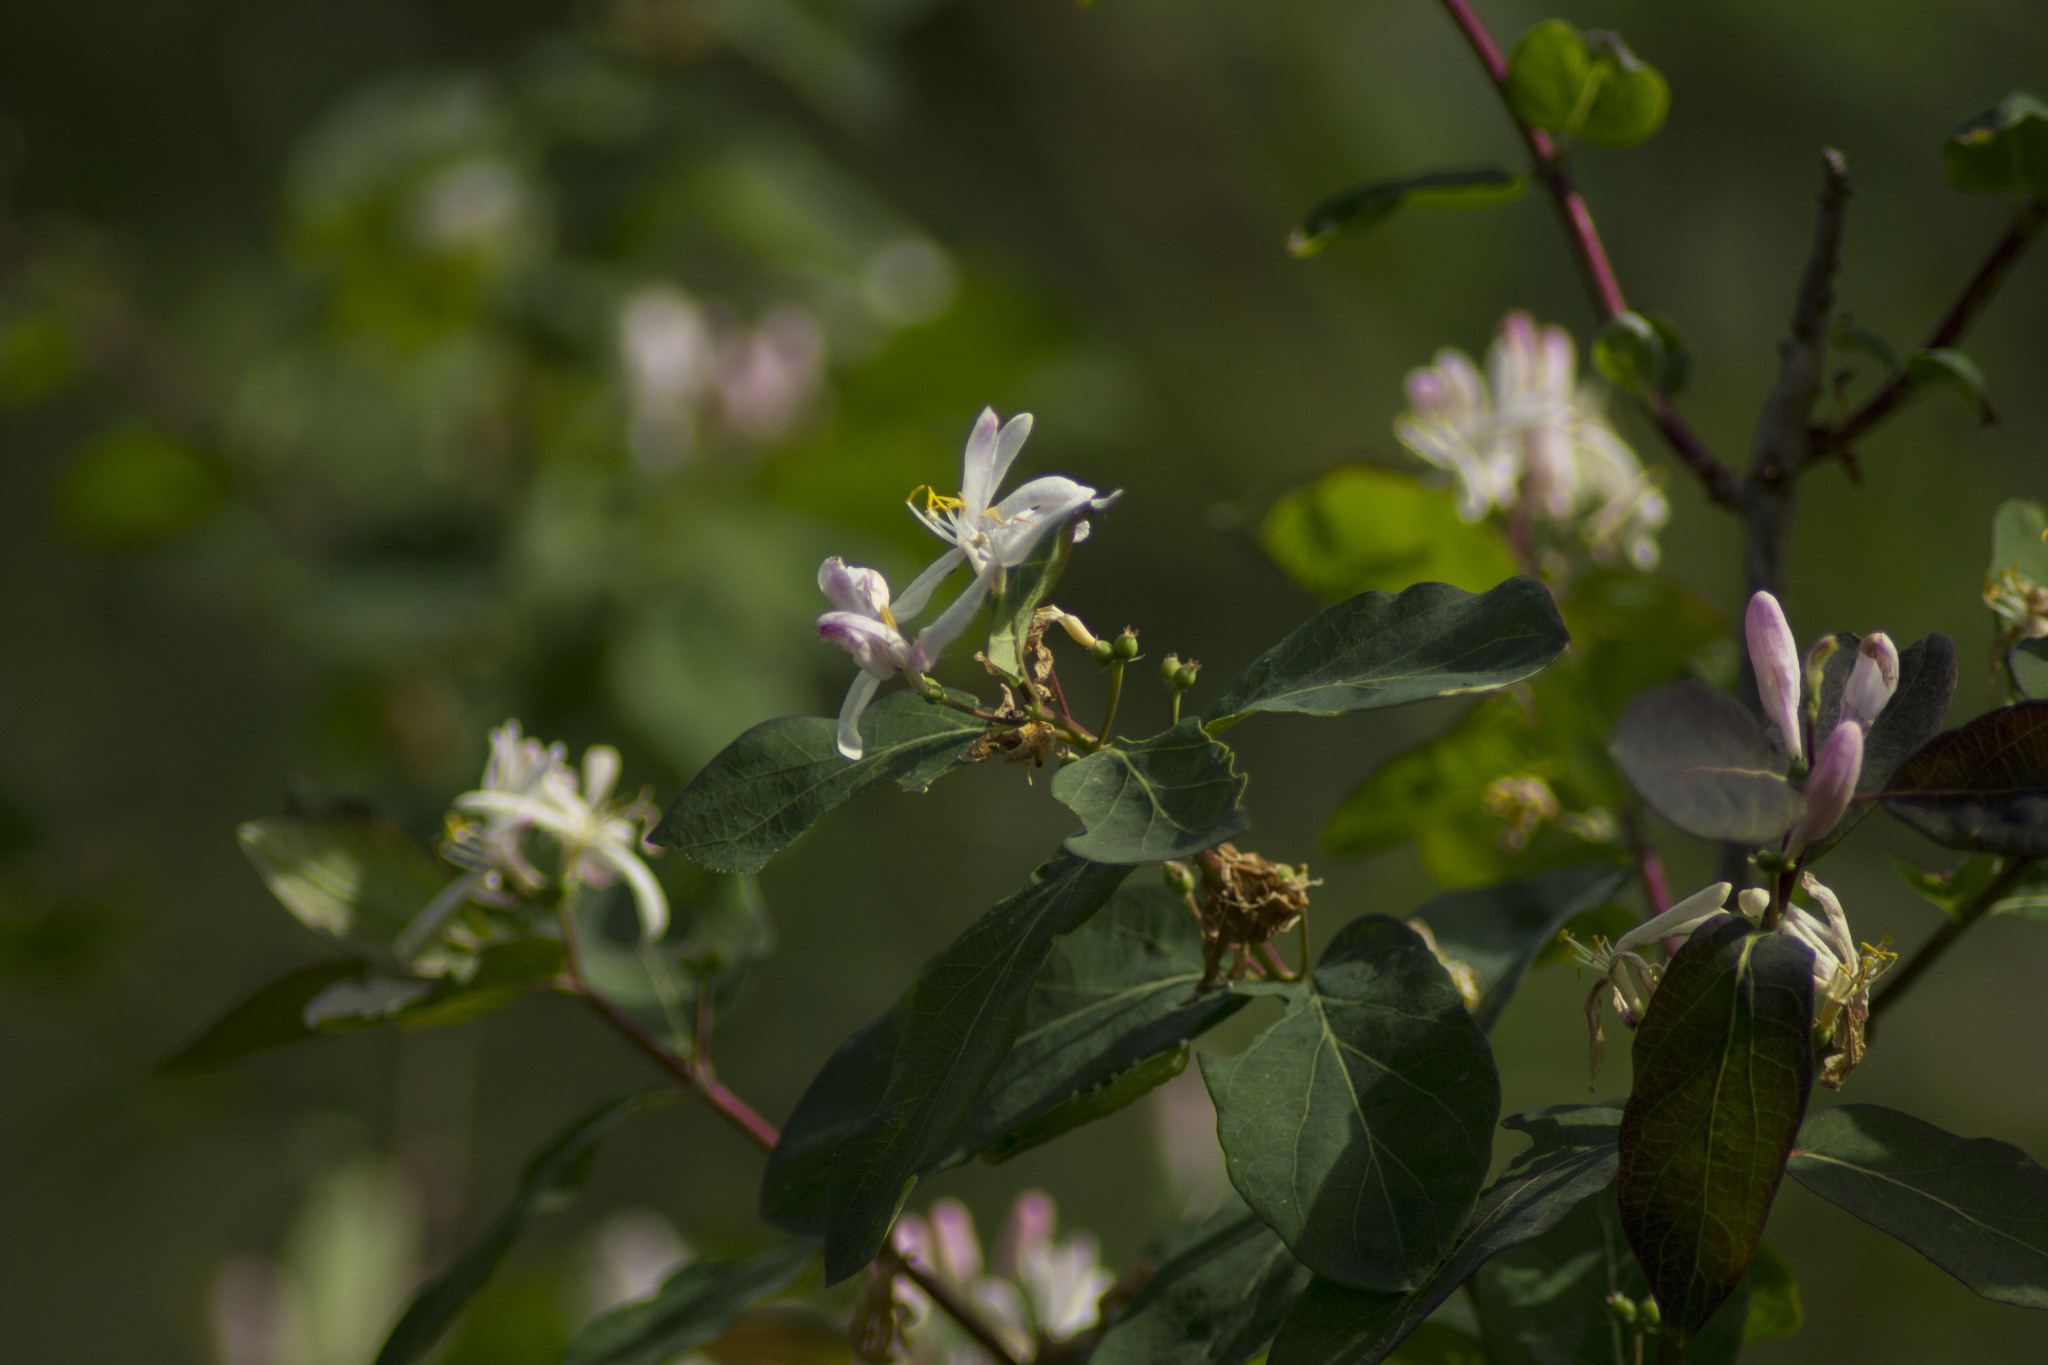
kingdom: Plantae
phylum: Tracheophyta
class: Magnoliopsida
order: Dipsacales
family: Caprifoliaceae
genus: Lonicera
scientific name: Lonicera tatarica
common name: Tatarian honeysuckle
